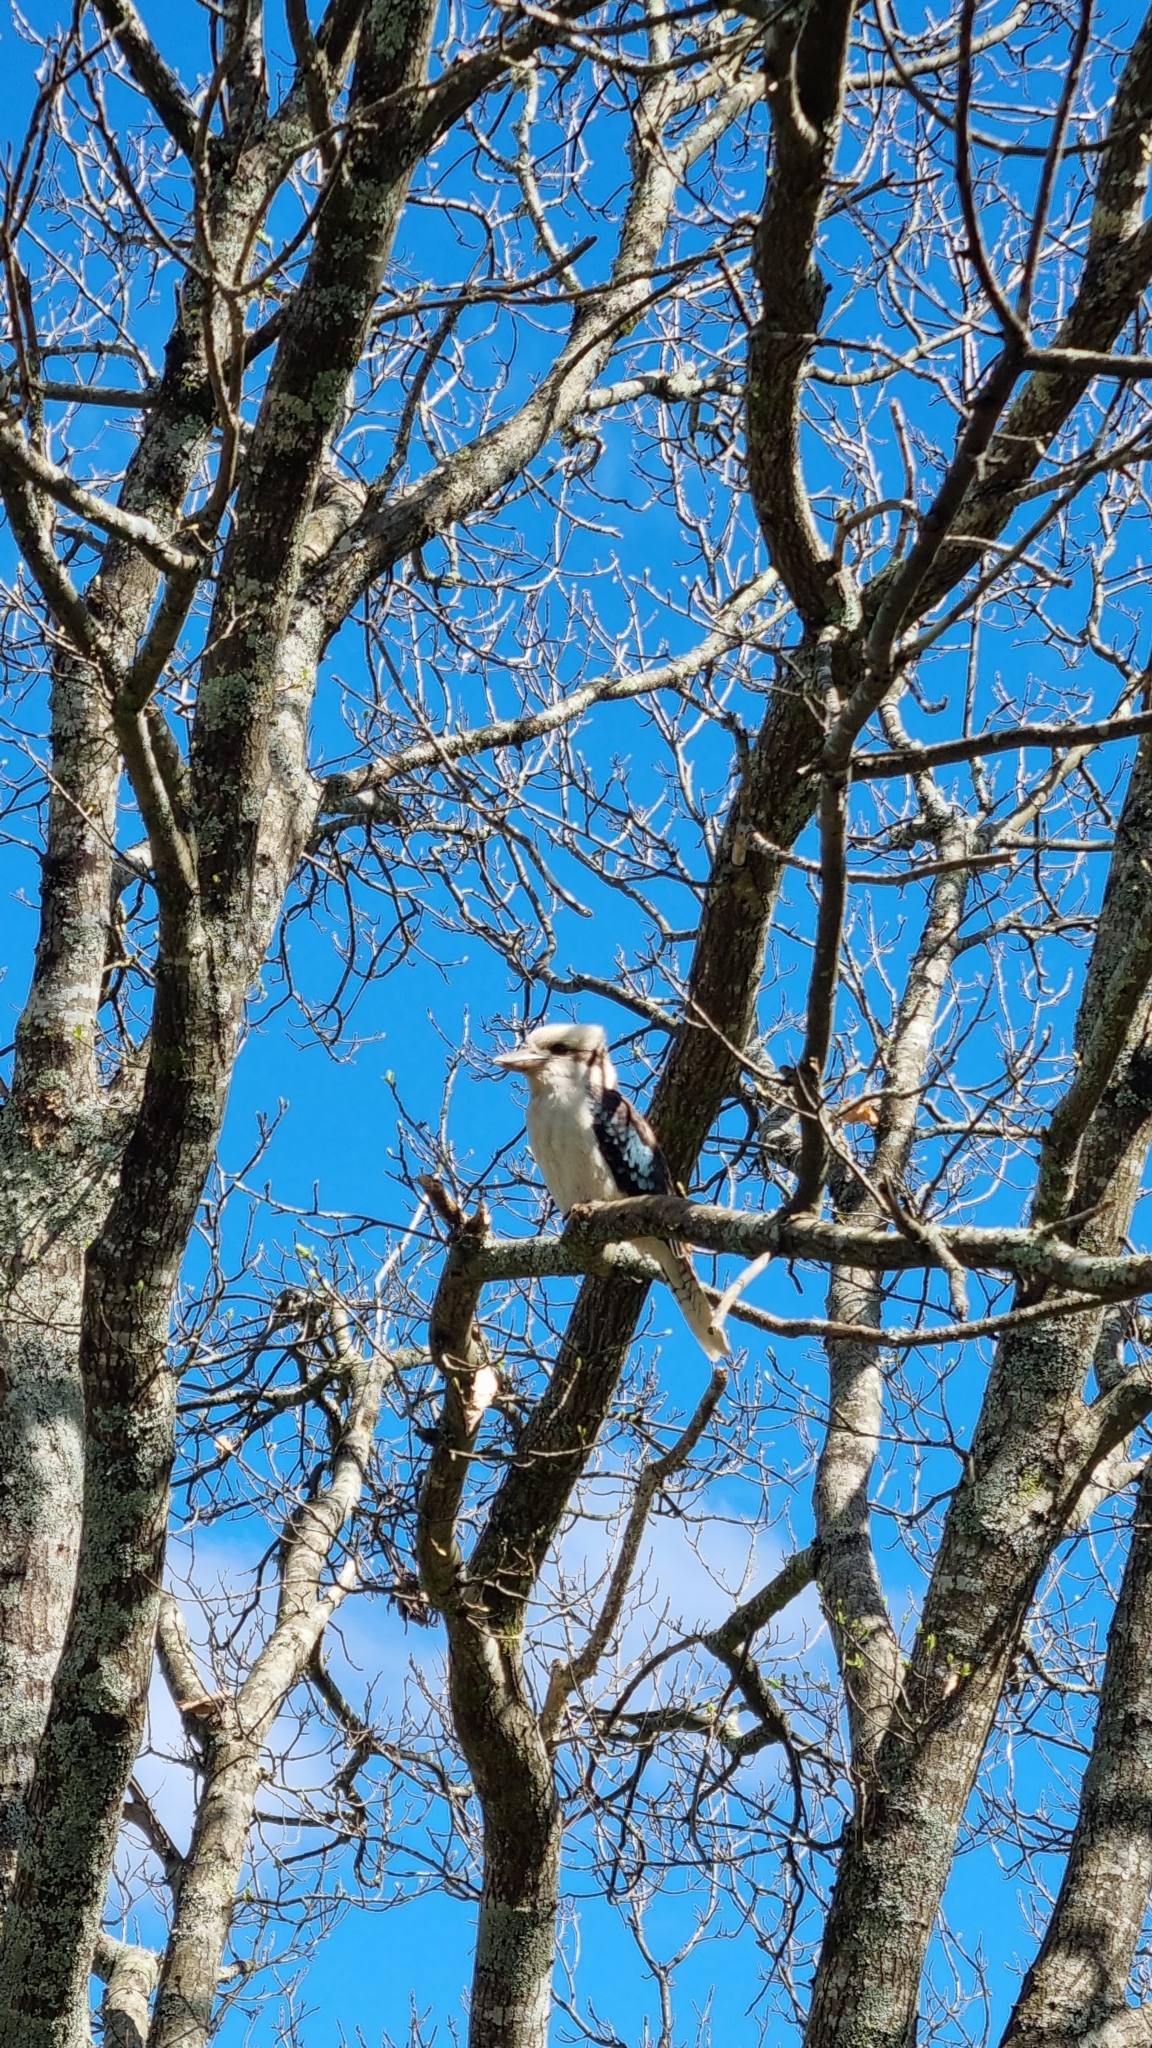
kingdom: Animalia
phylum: Chordata
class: Aves
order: Coraciiformes
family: Alcedinidae
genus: Dacelo
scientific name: Dacelo novaeguineae
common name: Laughing kookaburra
